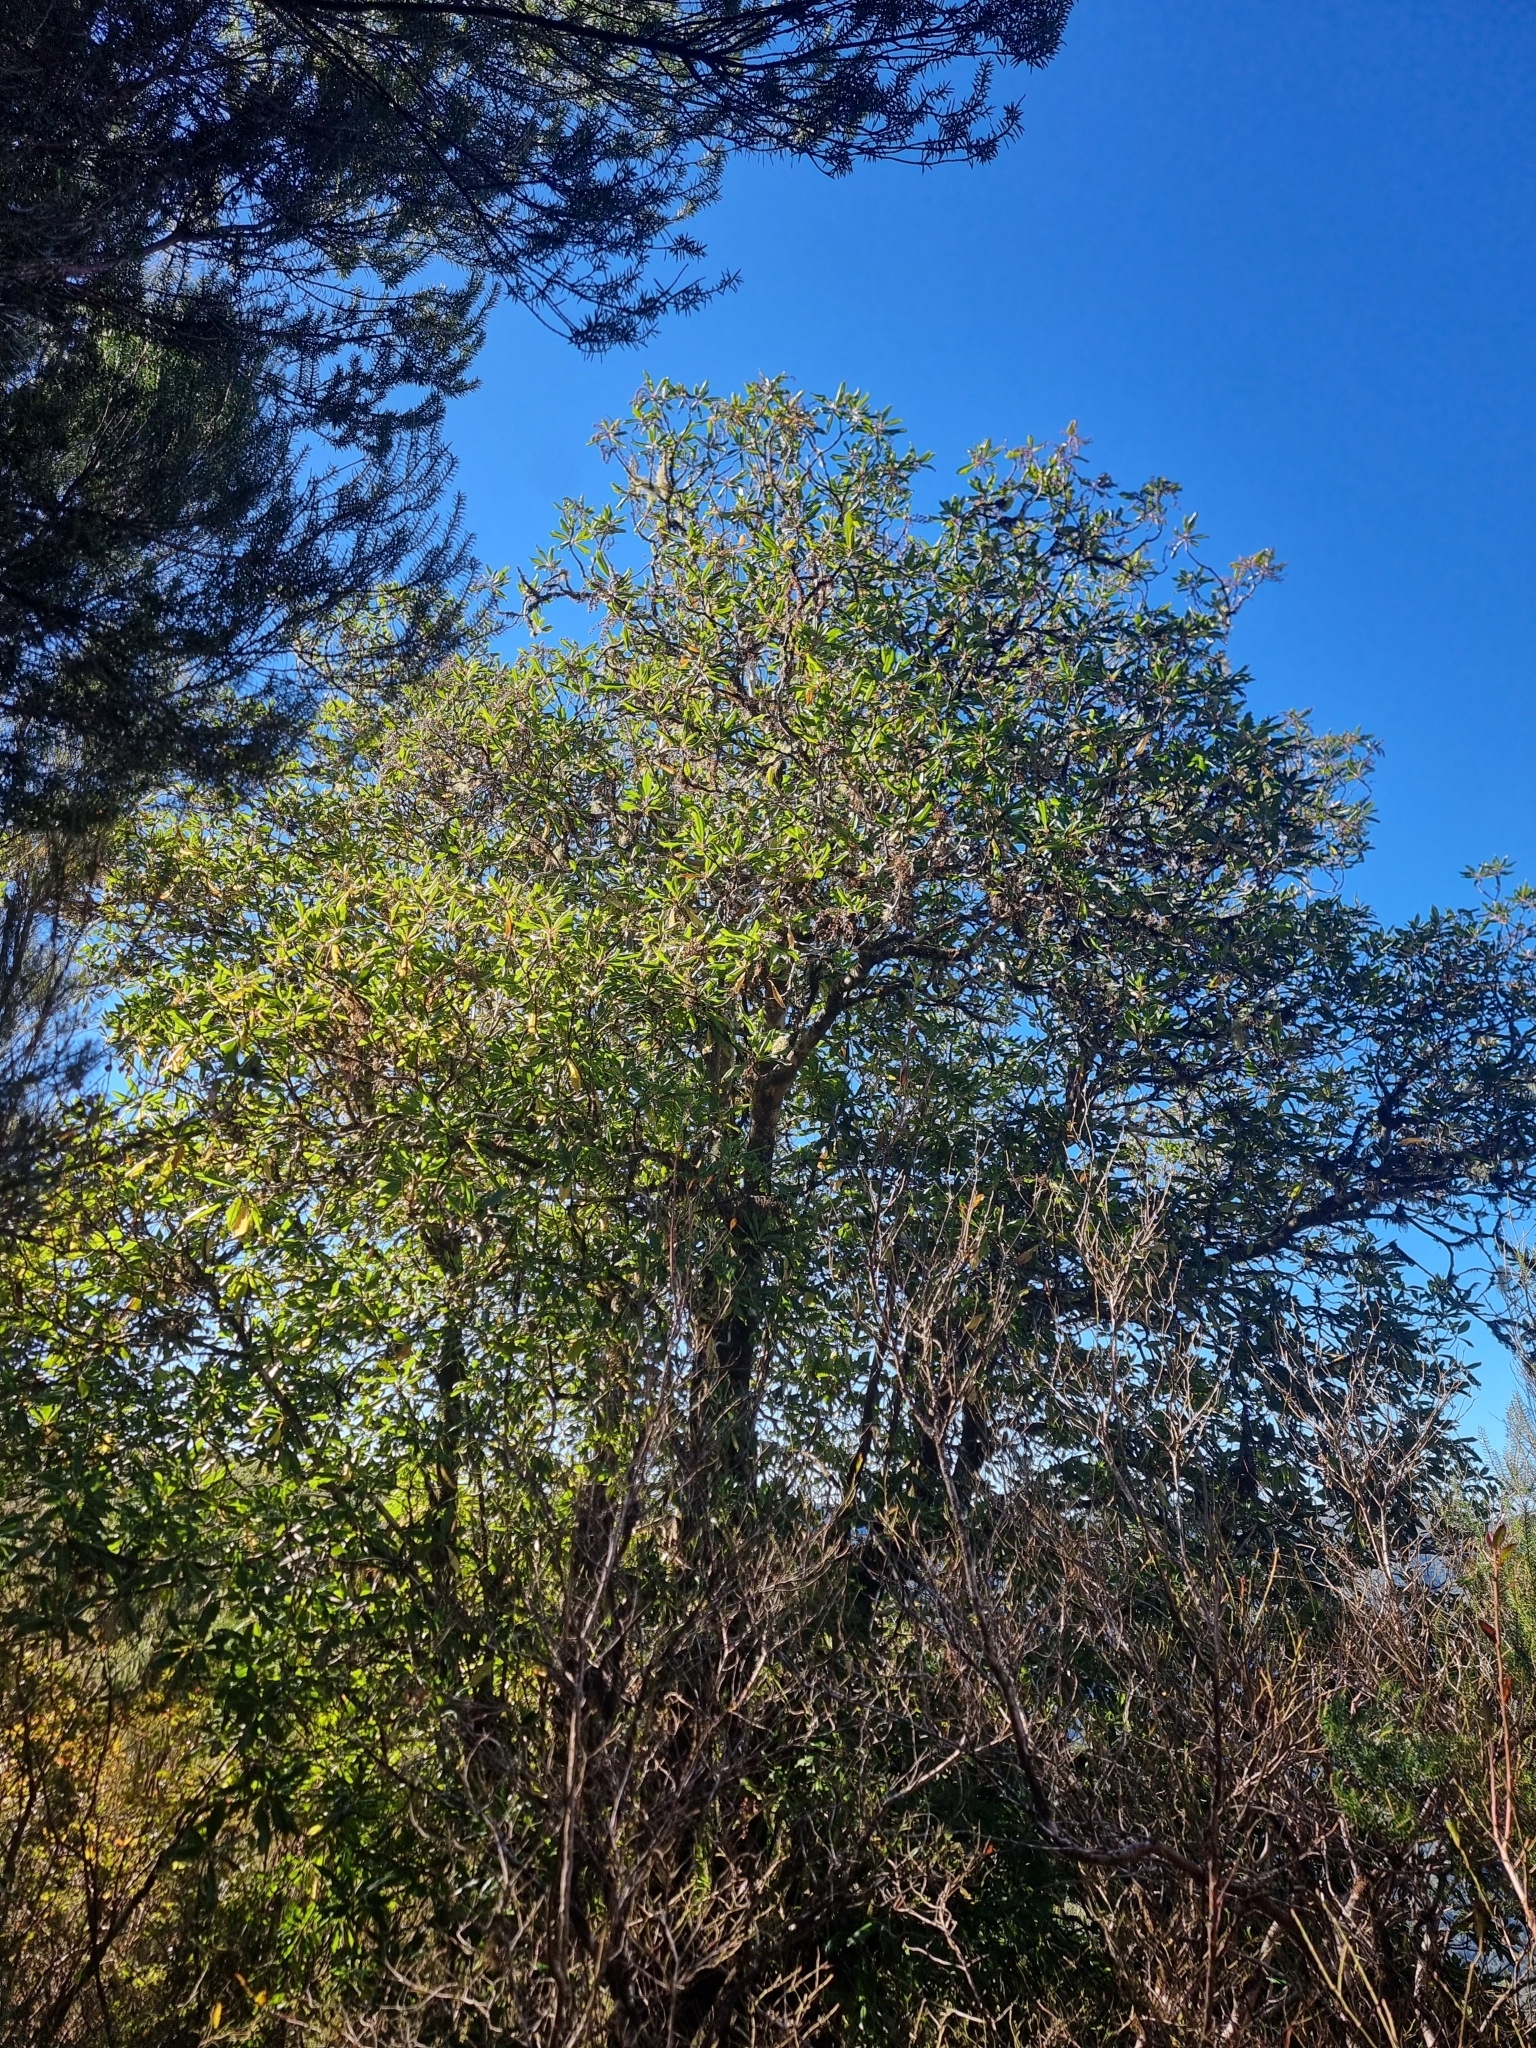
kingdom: Plantae
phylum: Tracheophyta
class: Magnoliopsida
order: Ericales
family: Clethraceae
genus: Clethra
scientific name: Clethra arborea
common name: Lily-of-the-valley-tree
